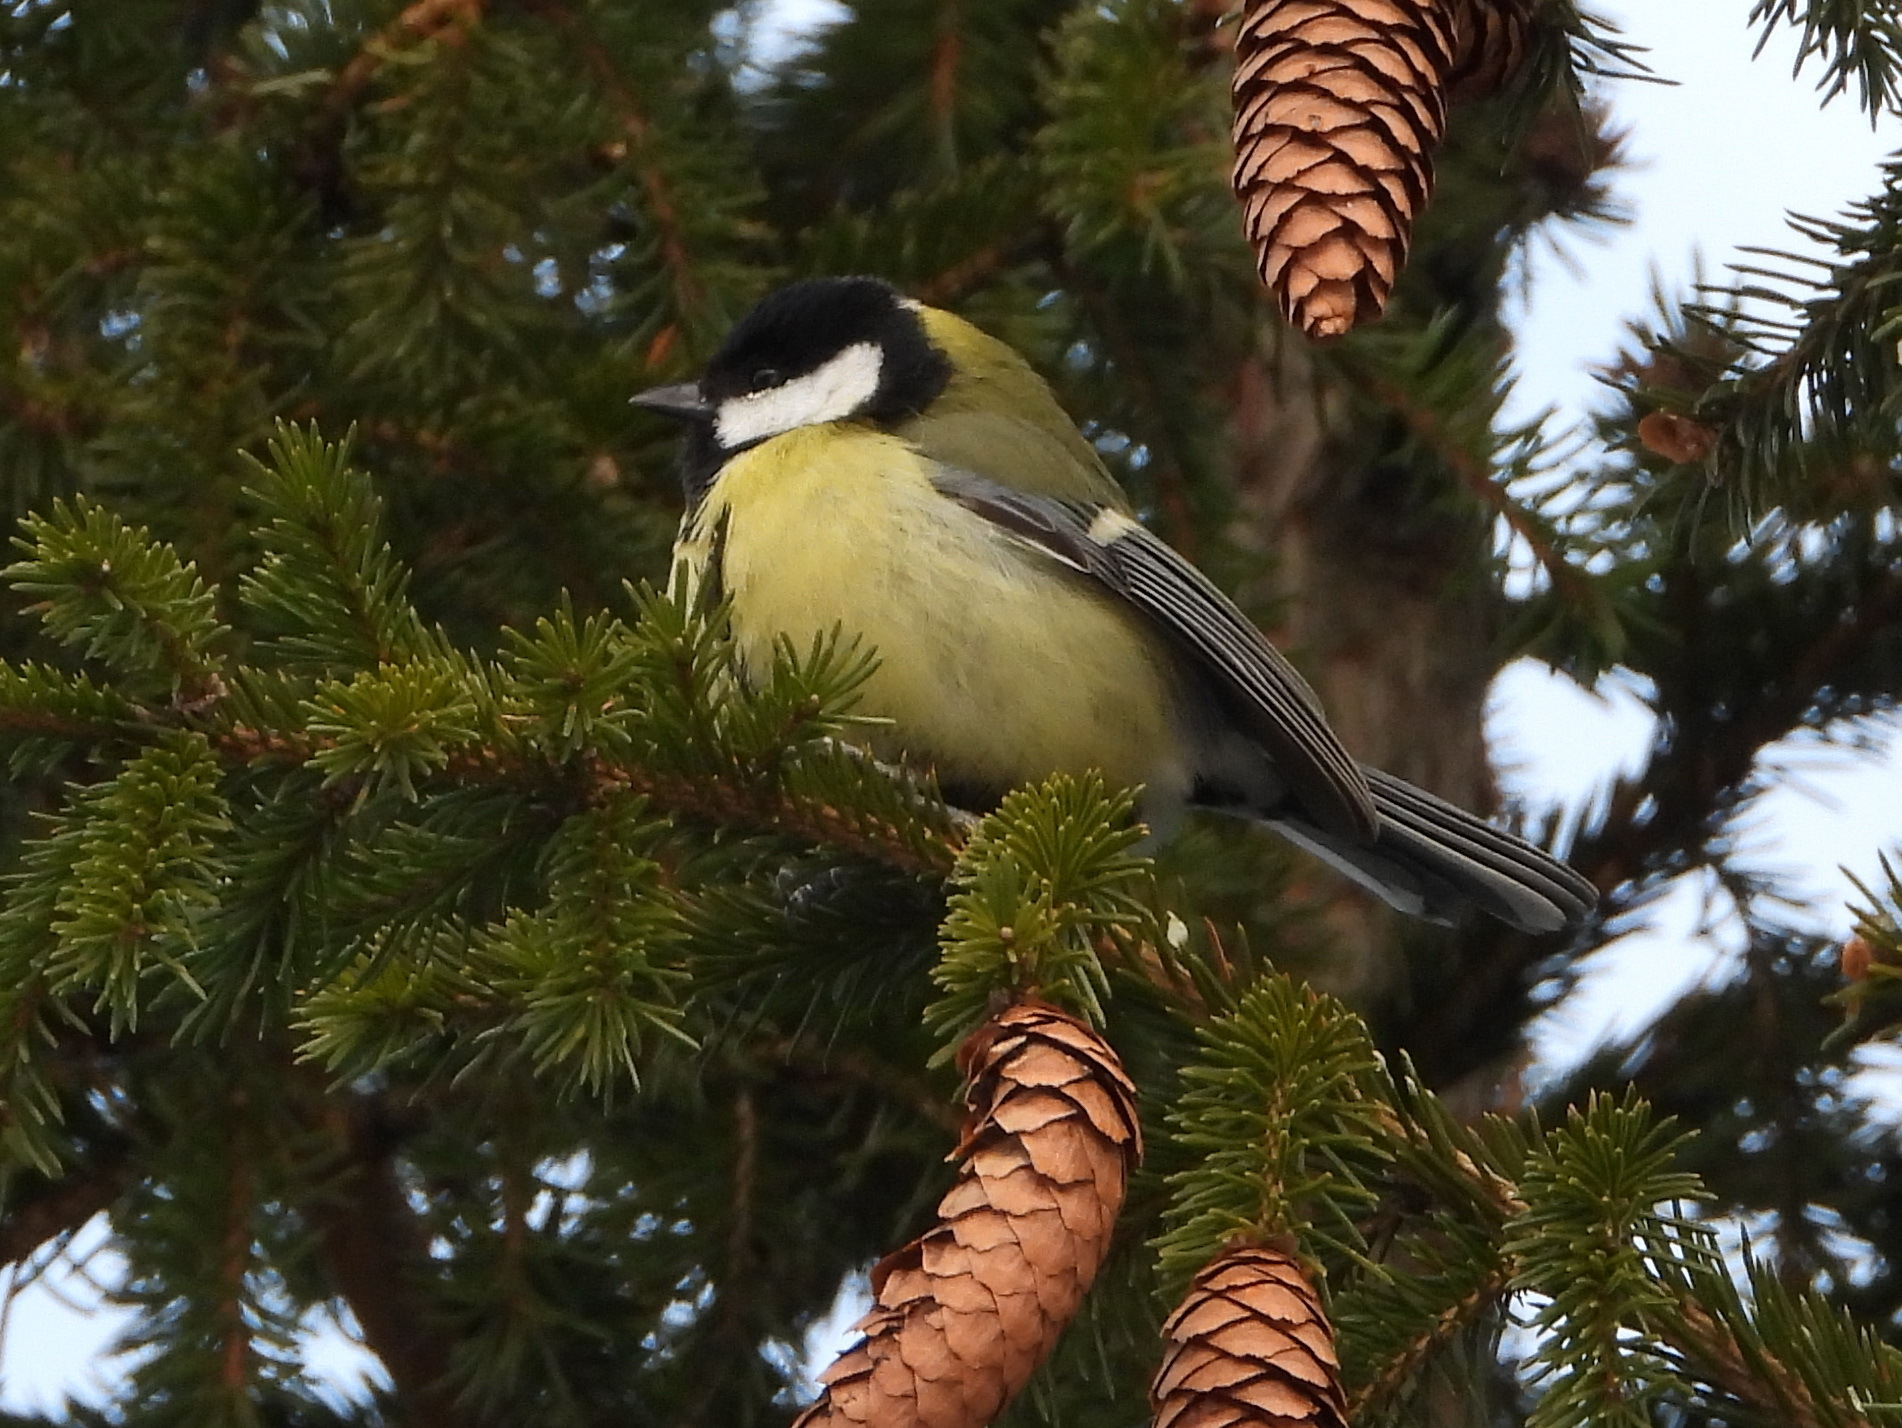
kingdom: Animalia
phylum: Chordata
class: Aves
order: Passeriformes
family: Paridae
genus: Parus
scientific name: Parus major
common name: Great tit
